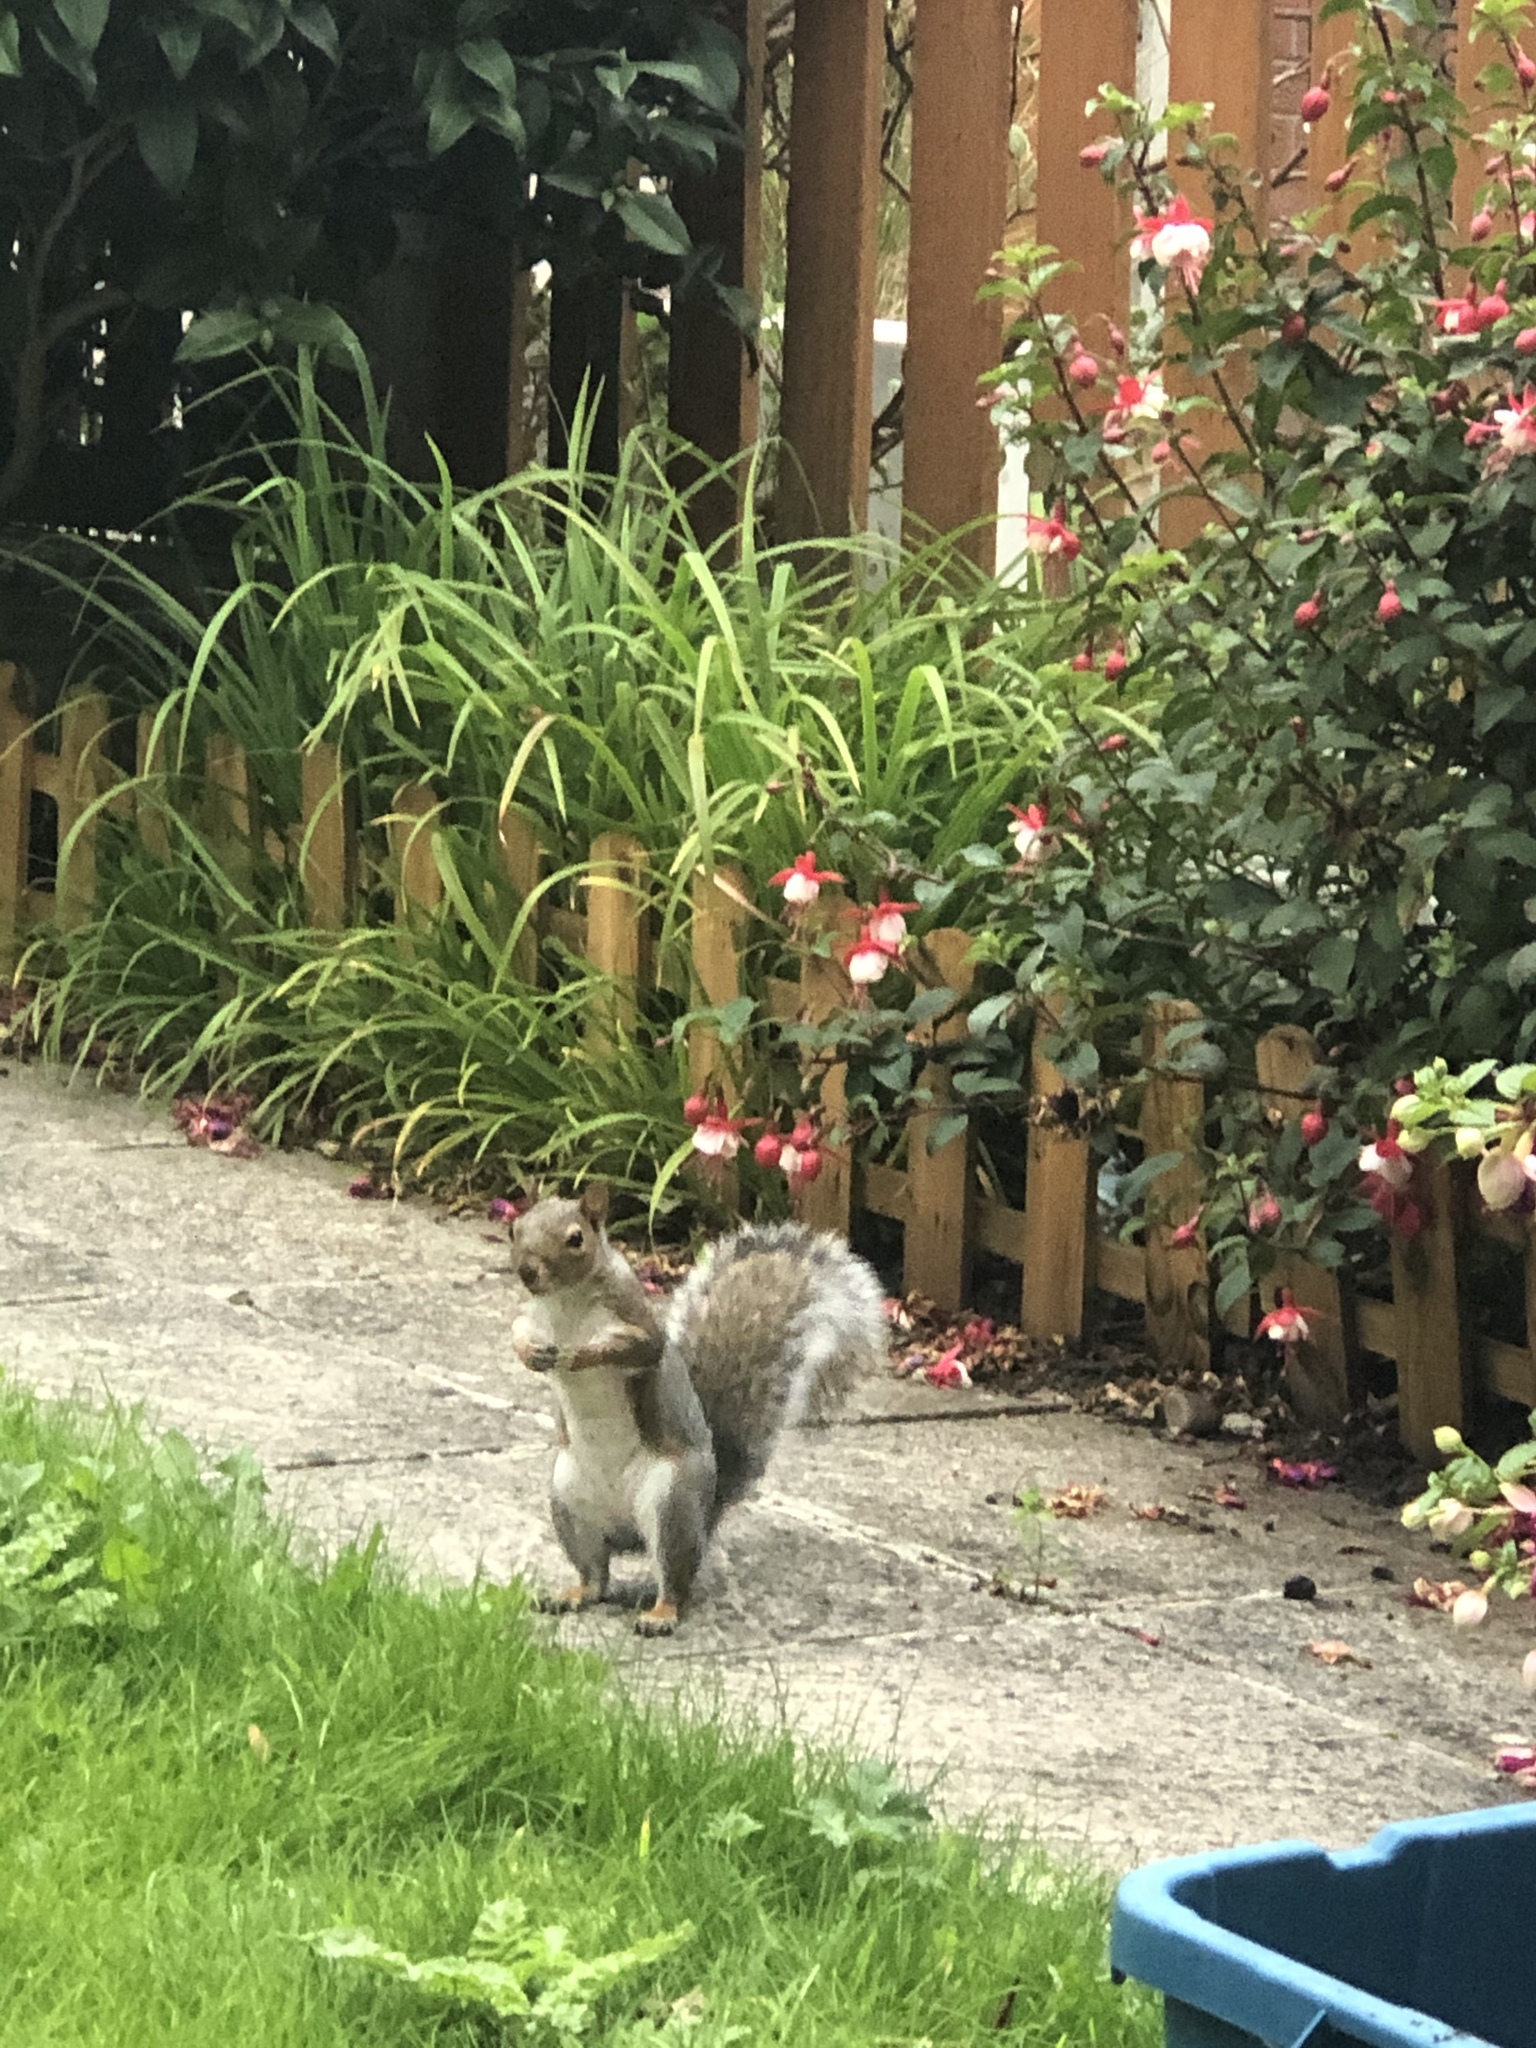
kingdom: Animalia
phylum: Chordata
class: Mammalia
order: Rodentia
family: Sciuridae
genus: Sciurus
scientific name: Sciurus carolinensis
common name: Eastern gray squirrel
